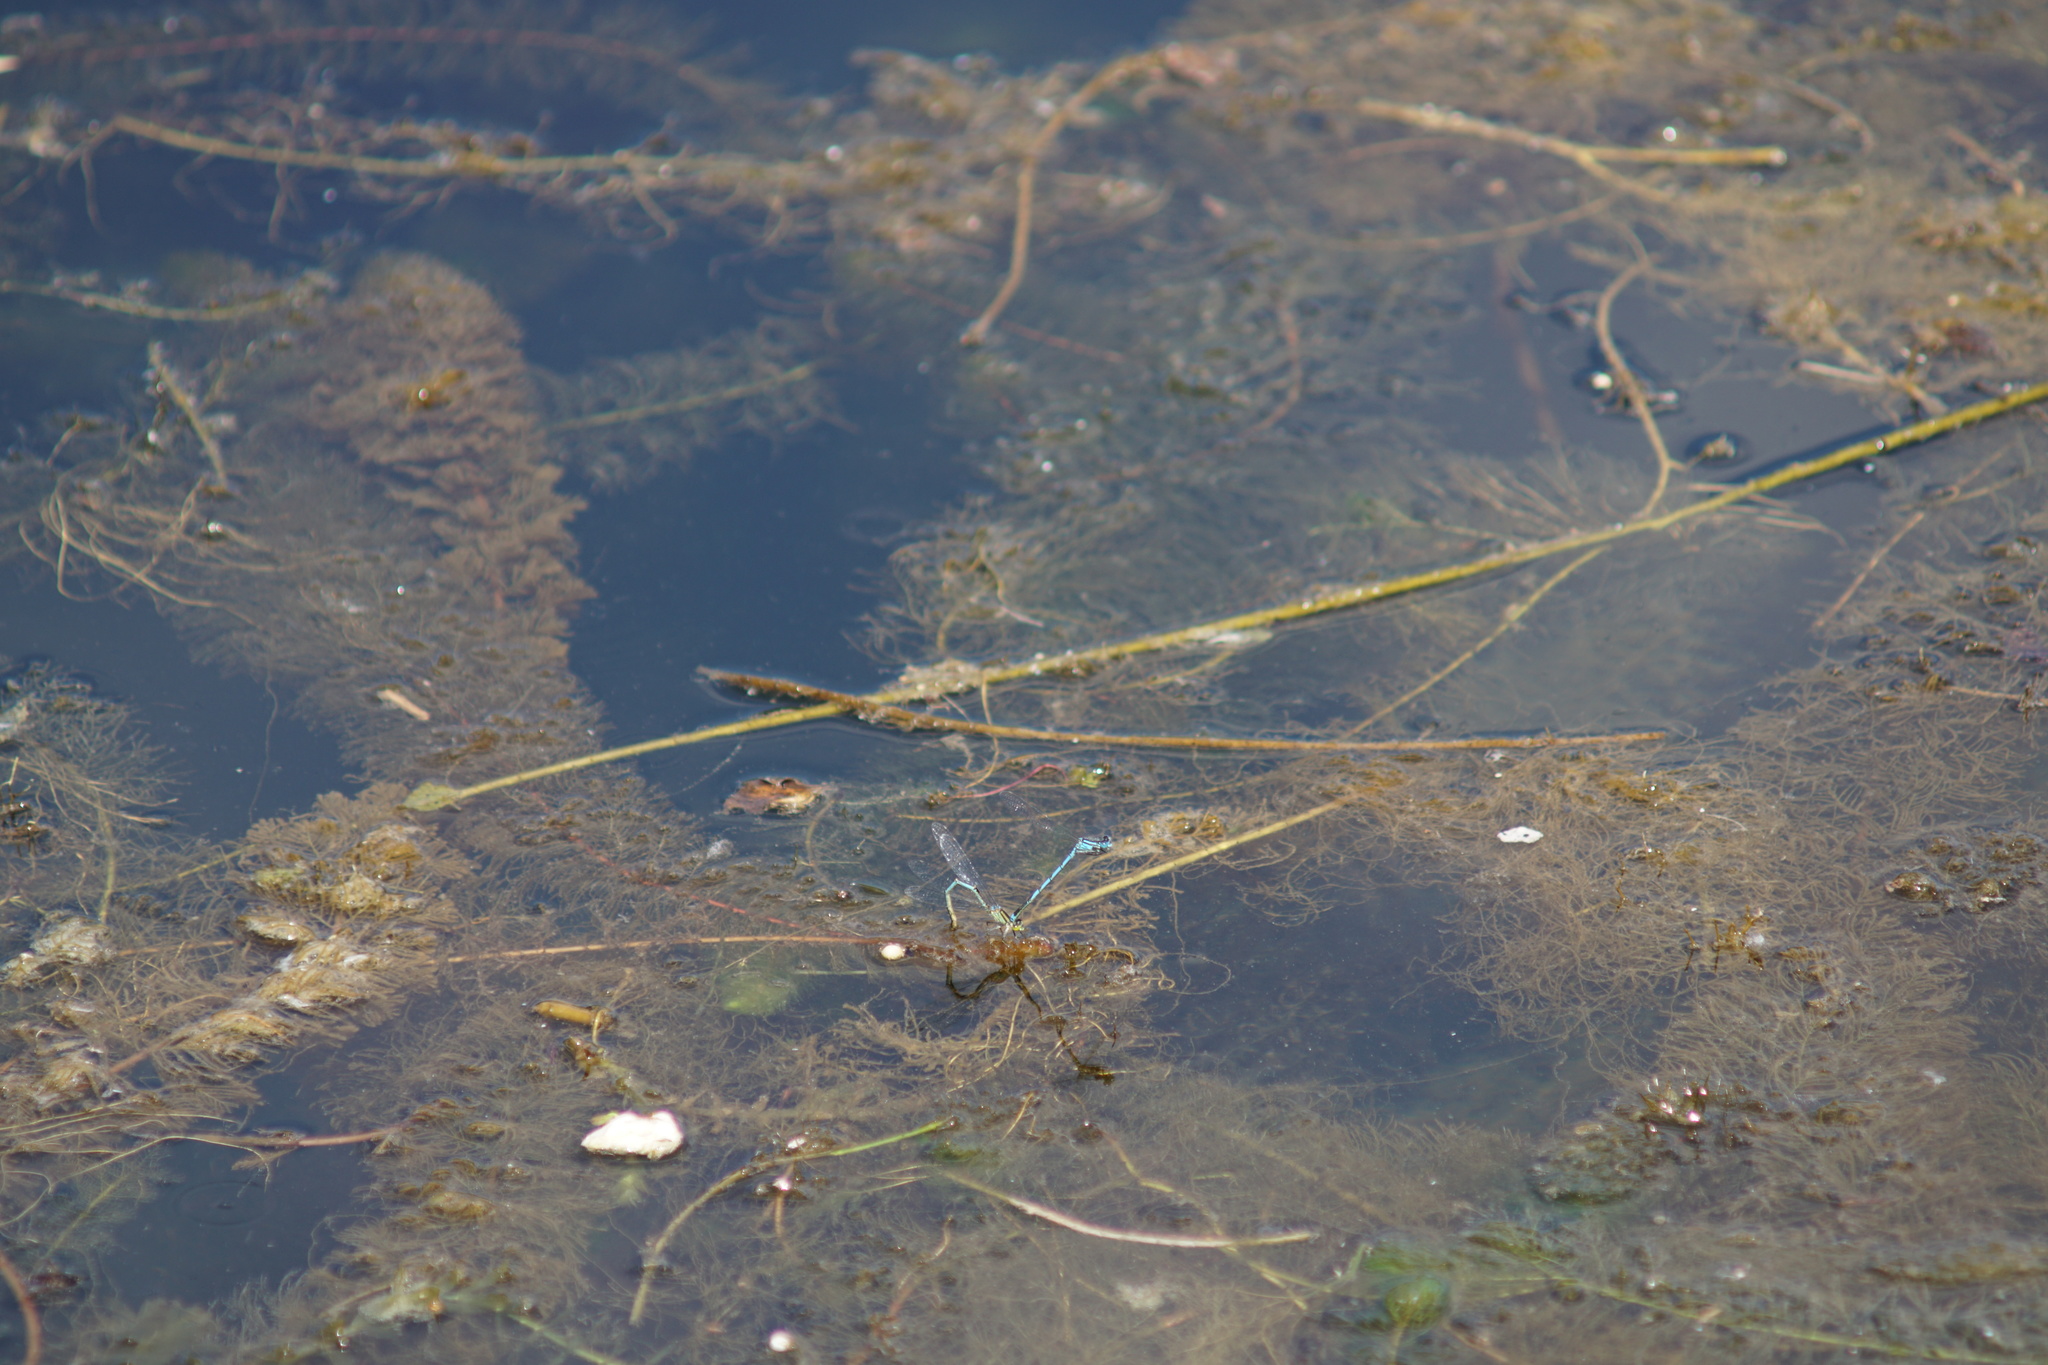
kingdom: Animalia
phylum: Arthropoda
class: Insecta
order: Odonata
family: Coenagrionidae
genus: Erythromma
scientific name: Erythromma lindenii
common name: Blue-eye
